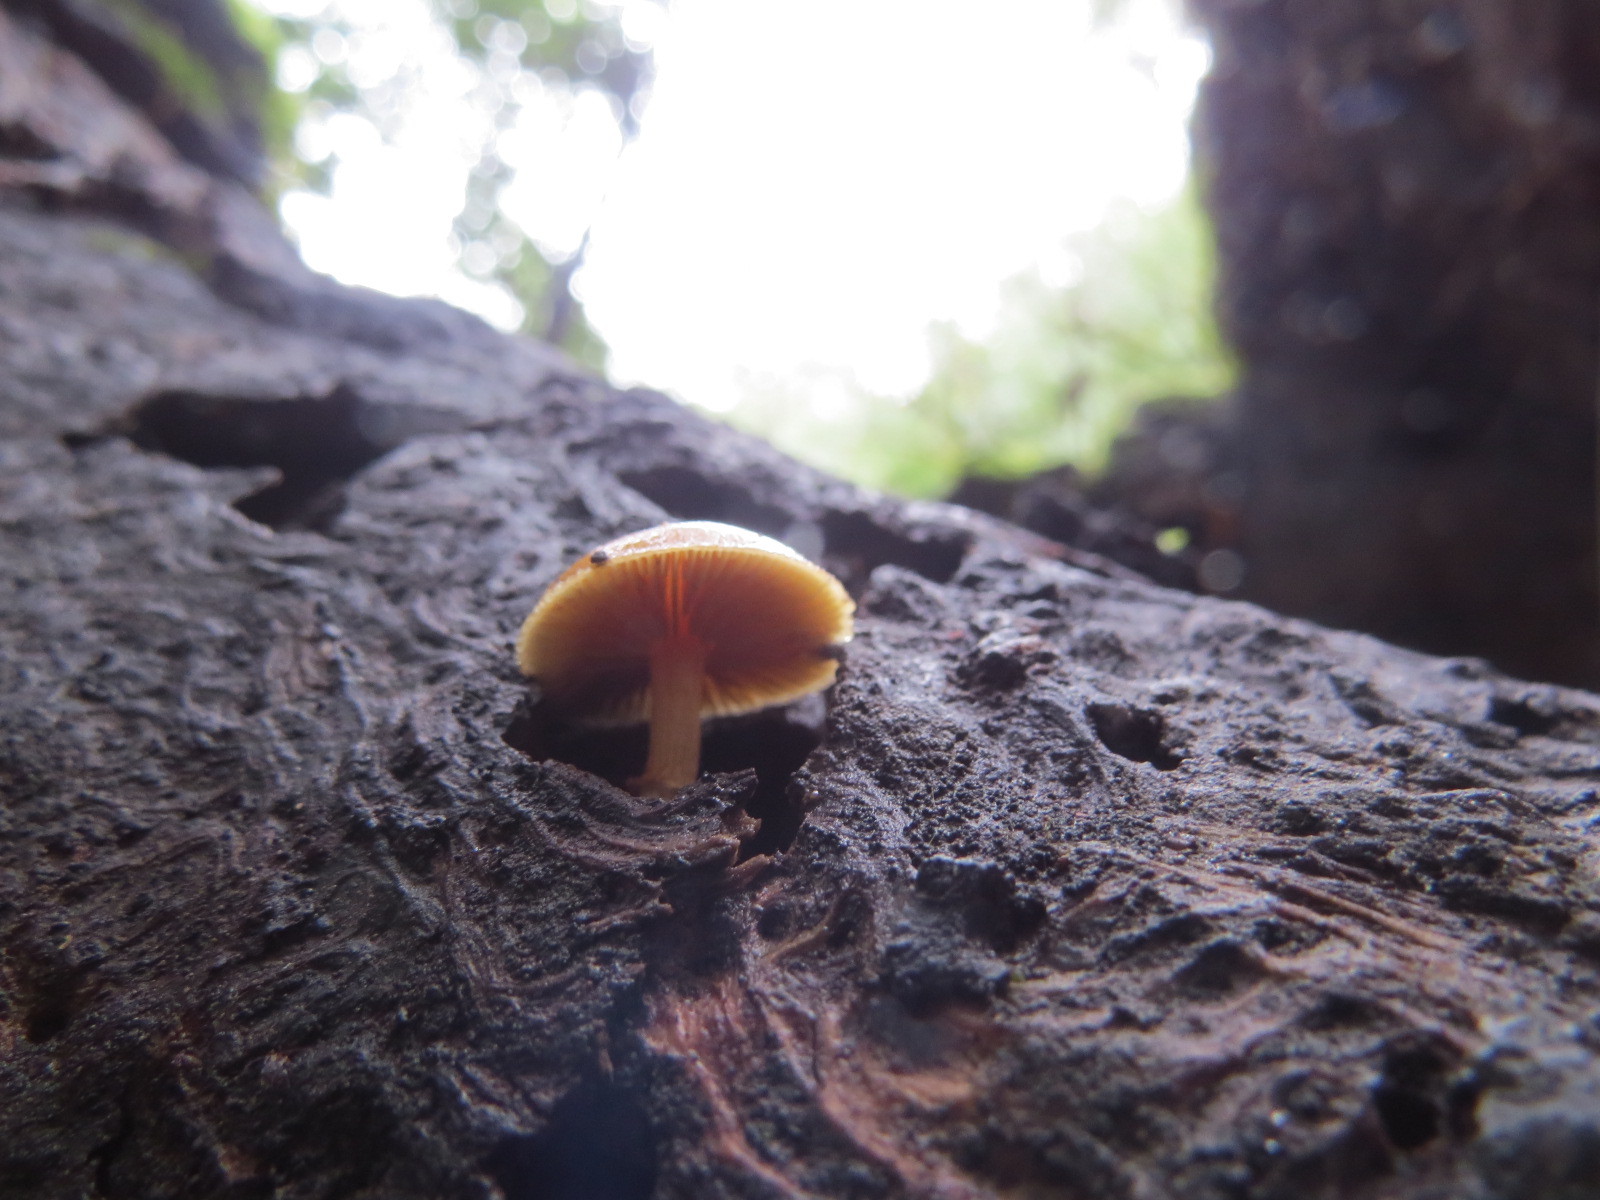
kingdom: Fungi
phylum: Basidiomycota
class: Agaricomycetes
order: Agaricales
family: Hymenogastraceae
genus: Galerina
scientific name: Galerina marginata
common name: Funeral bell
